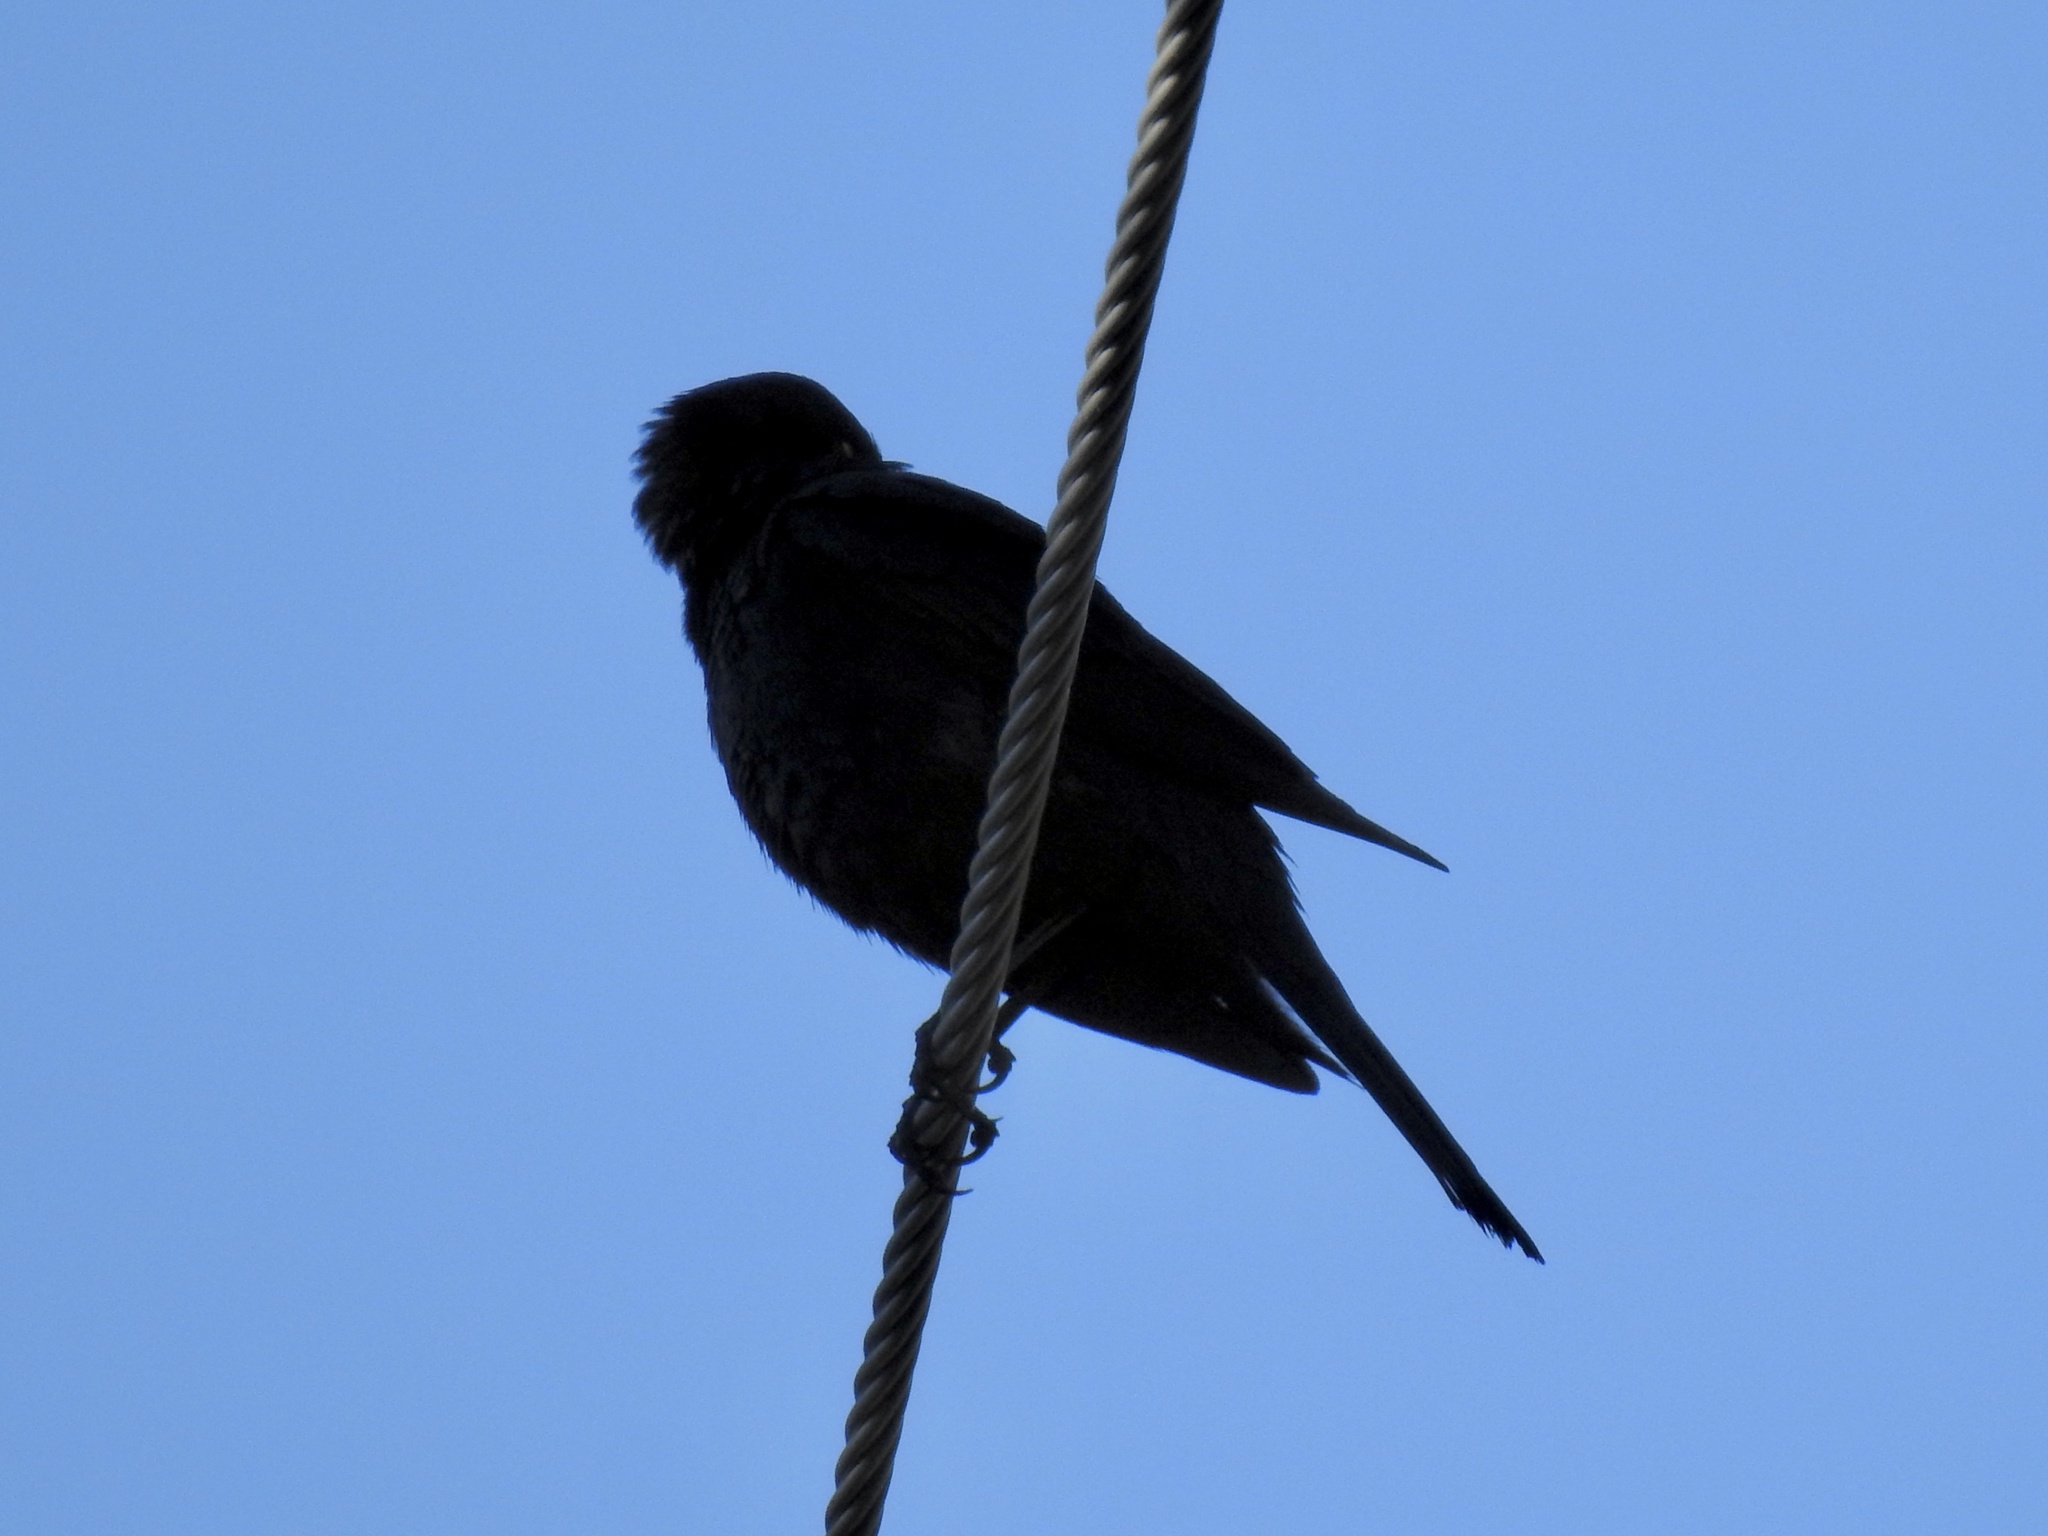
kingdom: Animalia
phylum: Chordata
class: Aves
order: Passeriformes
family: Icteridae
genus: Euphagus
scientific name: Euphagus cyanocephalus
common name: Brewer's blackbird
